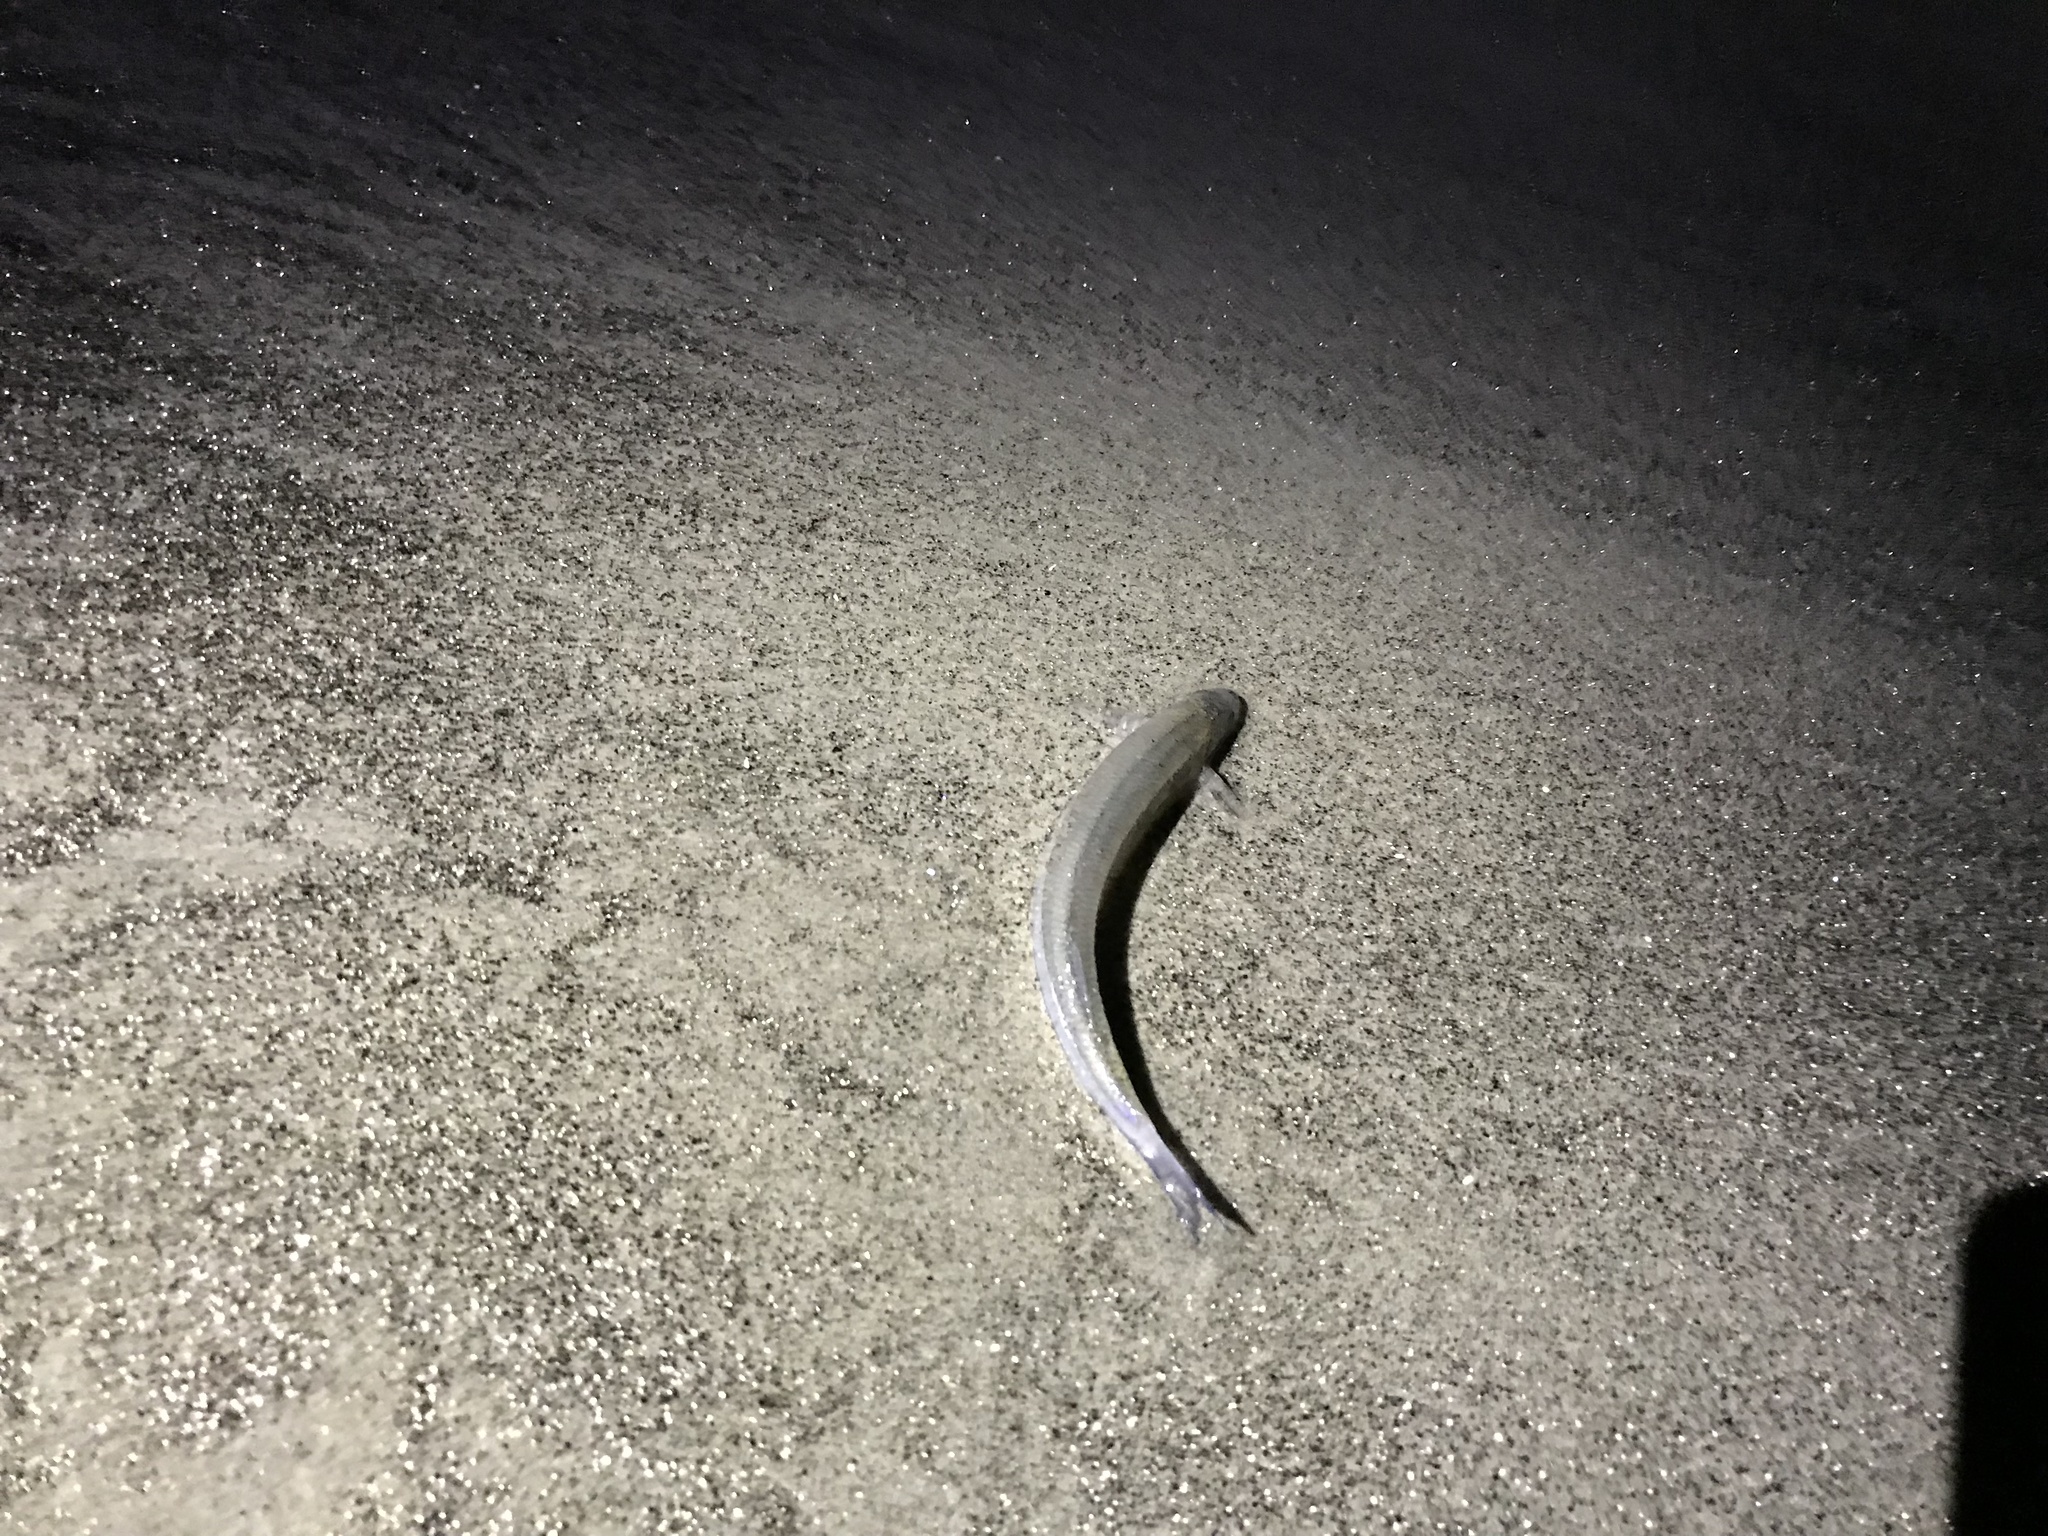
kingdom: Animalia
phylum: Chordata
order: Atheriniformes
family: Atherinopsidae
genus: Leuresthes
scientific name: Leuresthes tenuis
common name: California grunion
